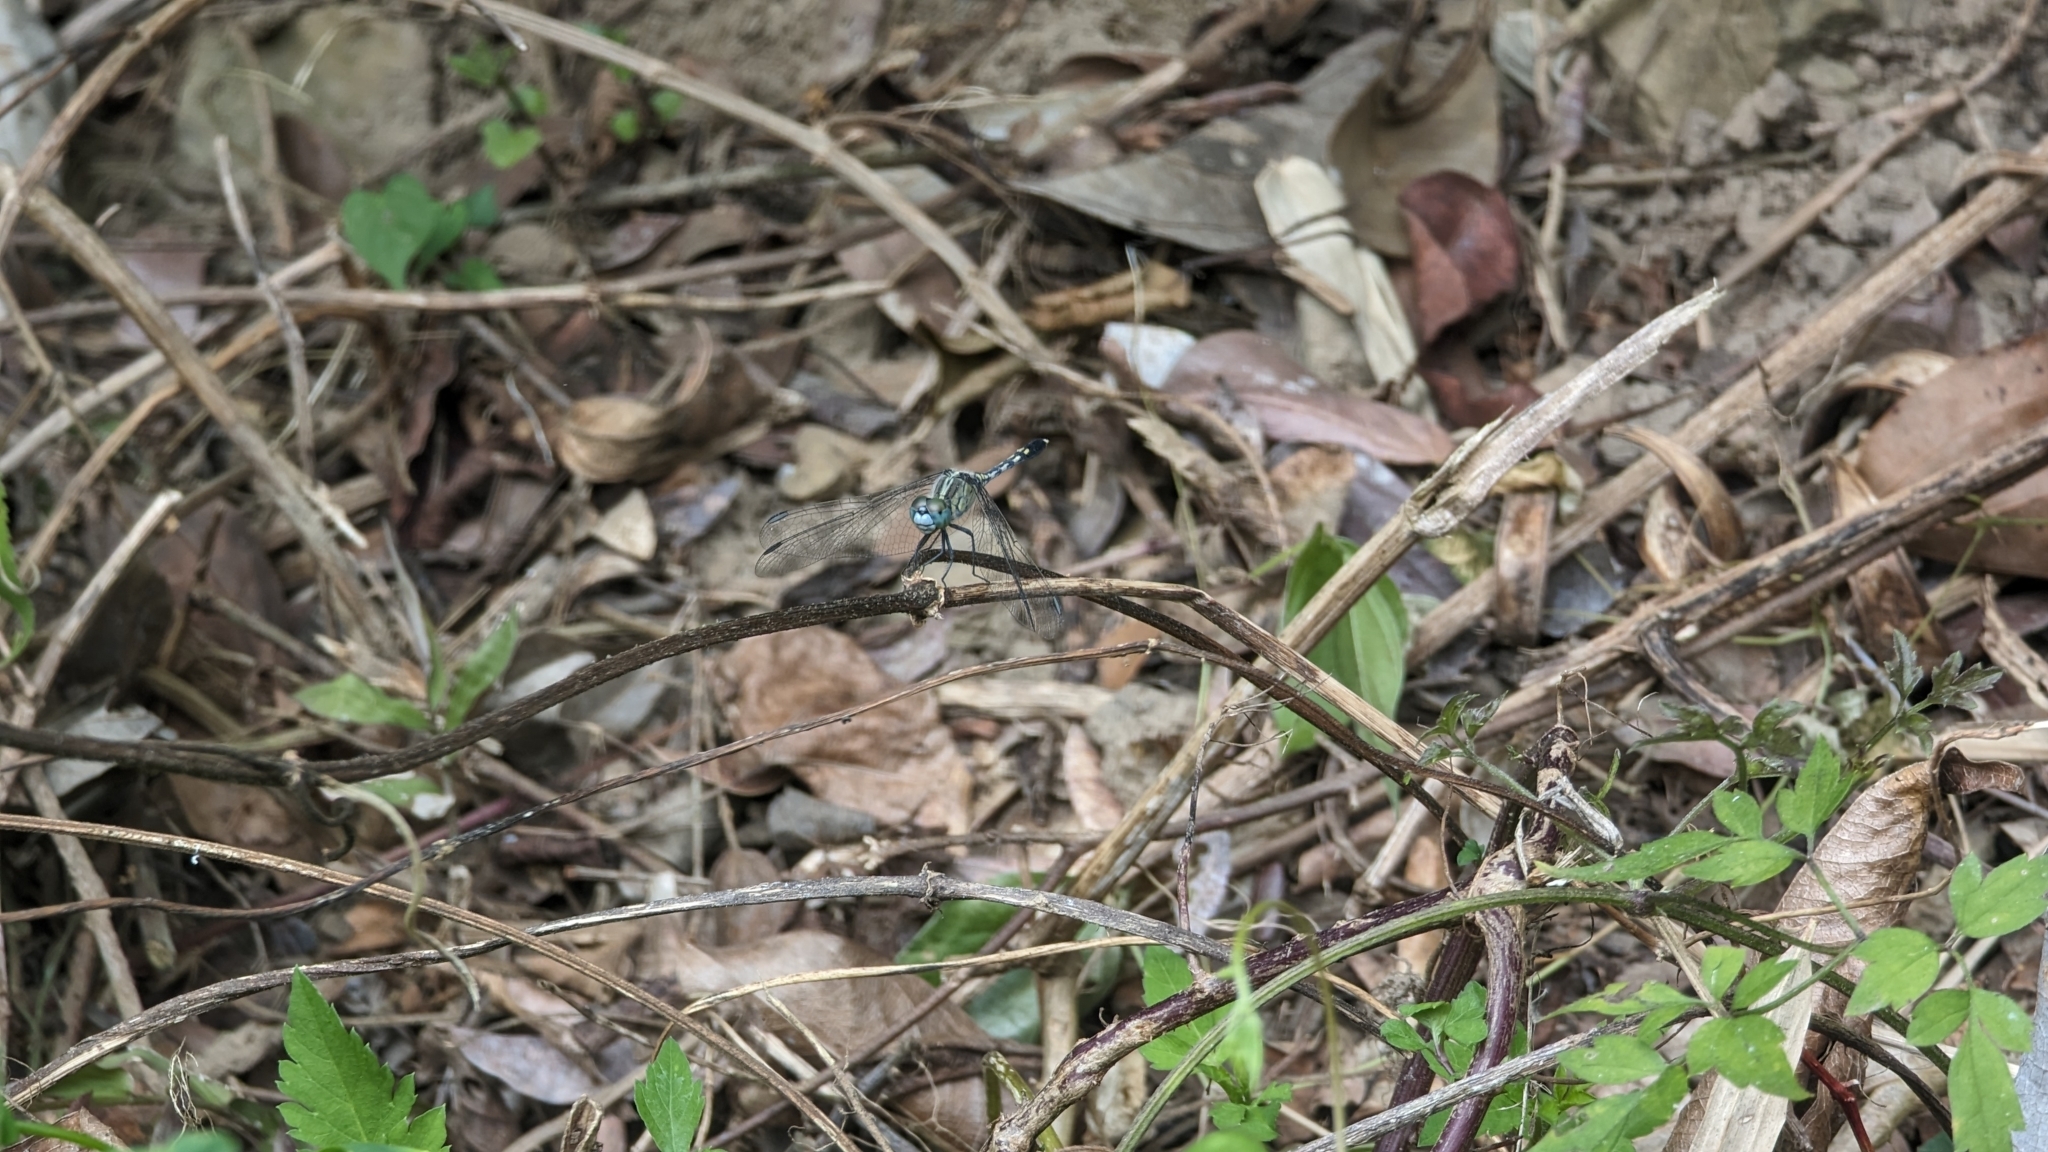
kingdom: Animalia
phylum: Arthropoda
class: Insecta
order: Odonata
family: Libellulidae
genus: Diplacodes
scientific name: Diplacodes trivialis
